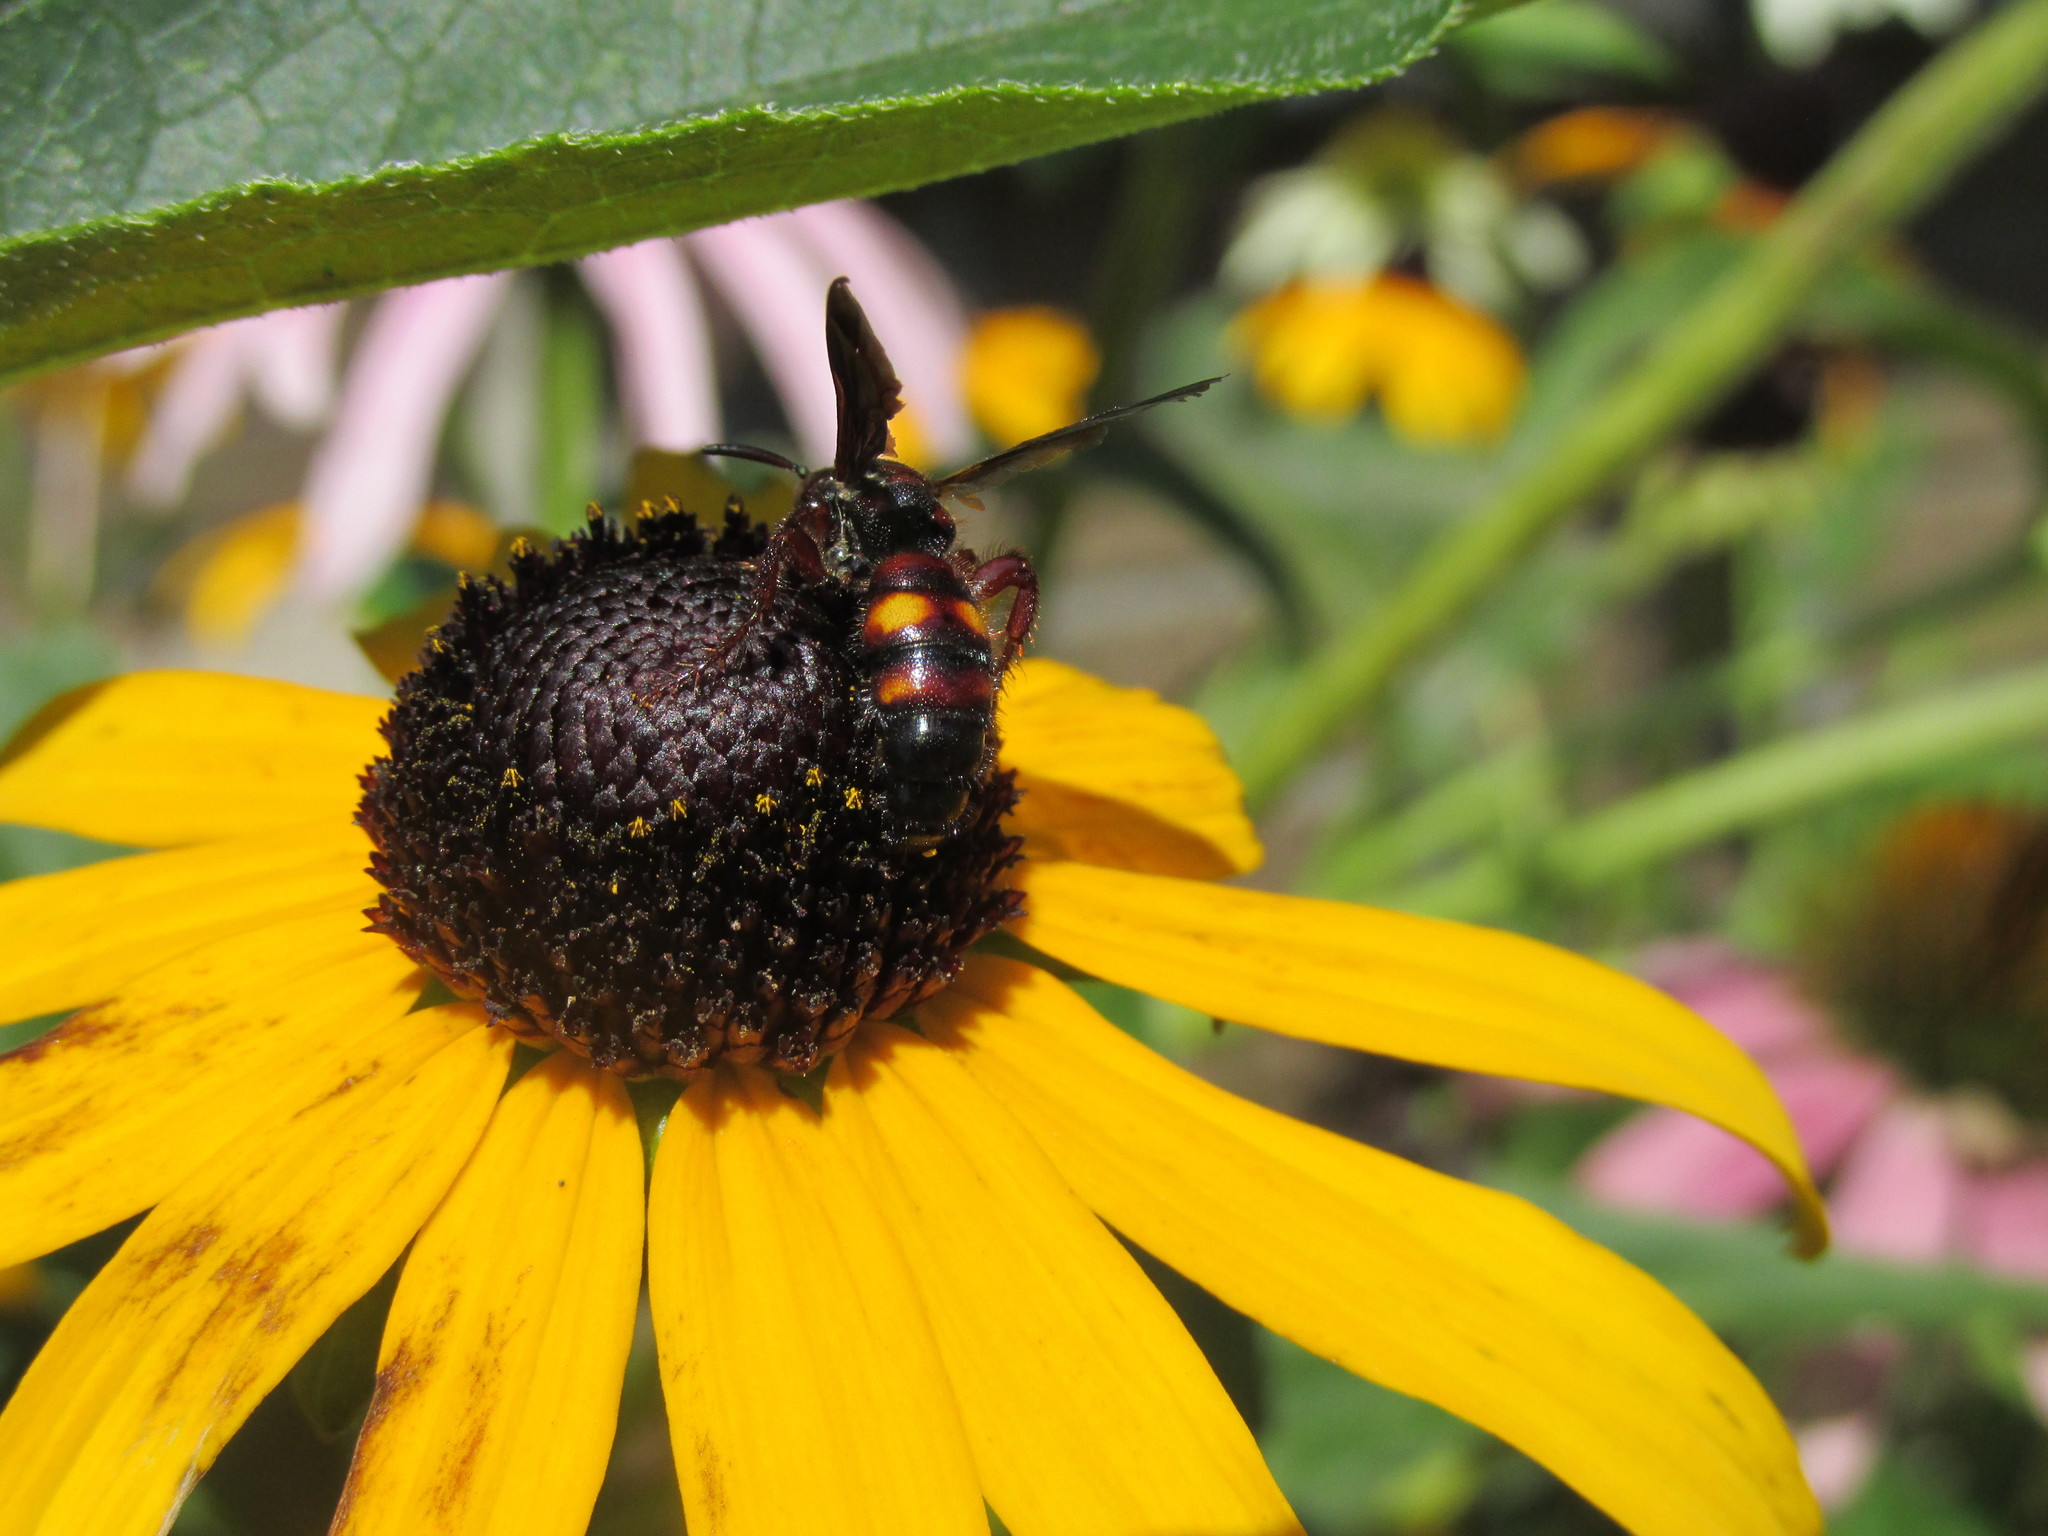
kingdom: Animalia
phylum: Arthropoda
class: Insecta
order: Hymenoptera
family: Scoliidae
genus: Scolia
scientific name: Scolia nobilitata
